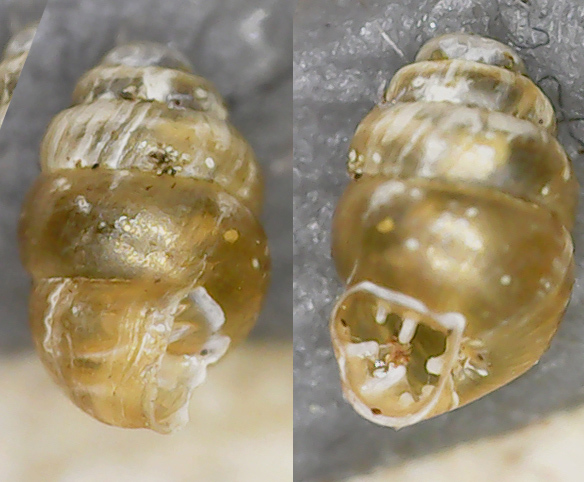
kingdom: Animalia
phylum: Mollusca
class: Gastropoda
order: Stylommatophora
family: Vertiginidae
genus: Vertigo
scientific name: Vertigo pusilla
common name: Wall whorl snail
